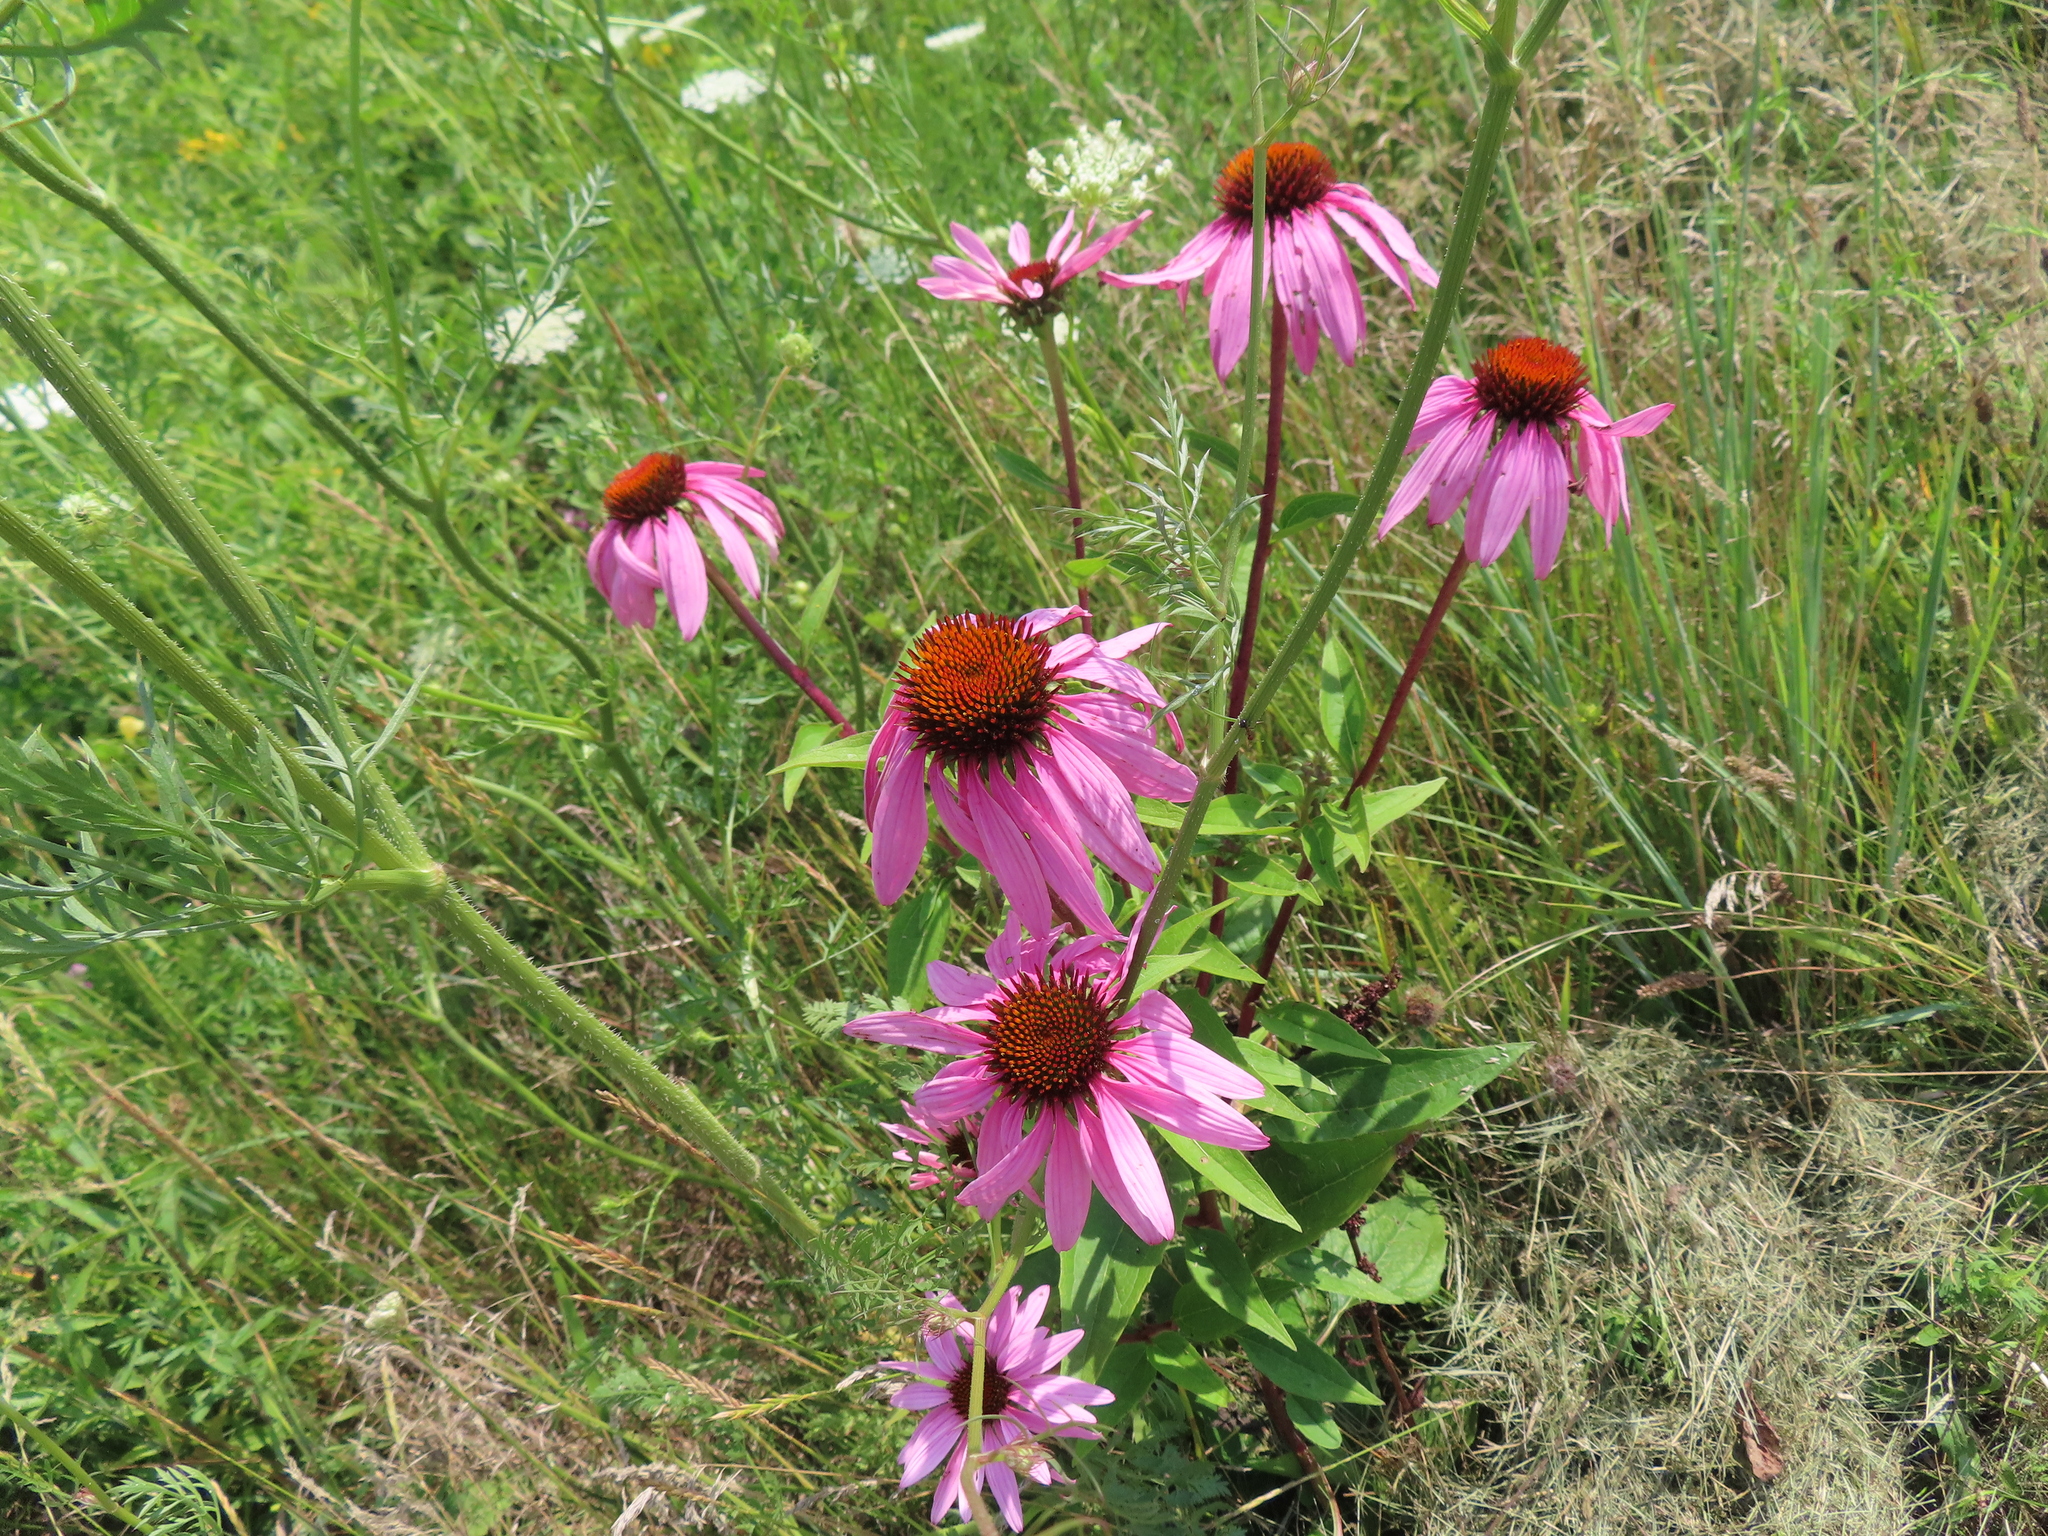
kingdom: Plantae
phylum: Tracheophyta
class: Magnoliopsida
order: Asterales
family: Asteraceae
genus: Echinacea
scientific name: Echinacea purpurea
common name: Broad-leaved purple coneflower
